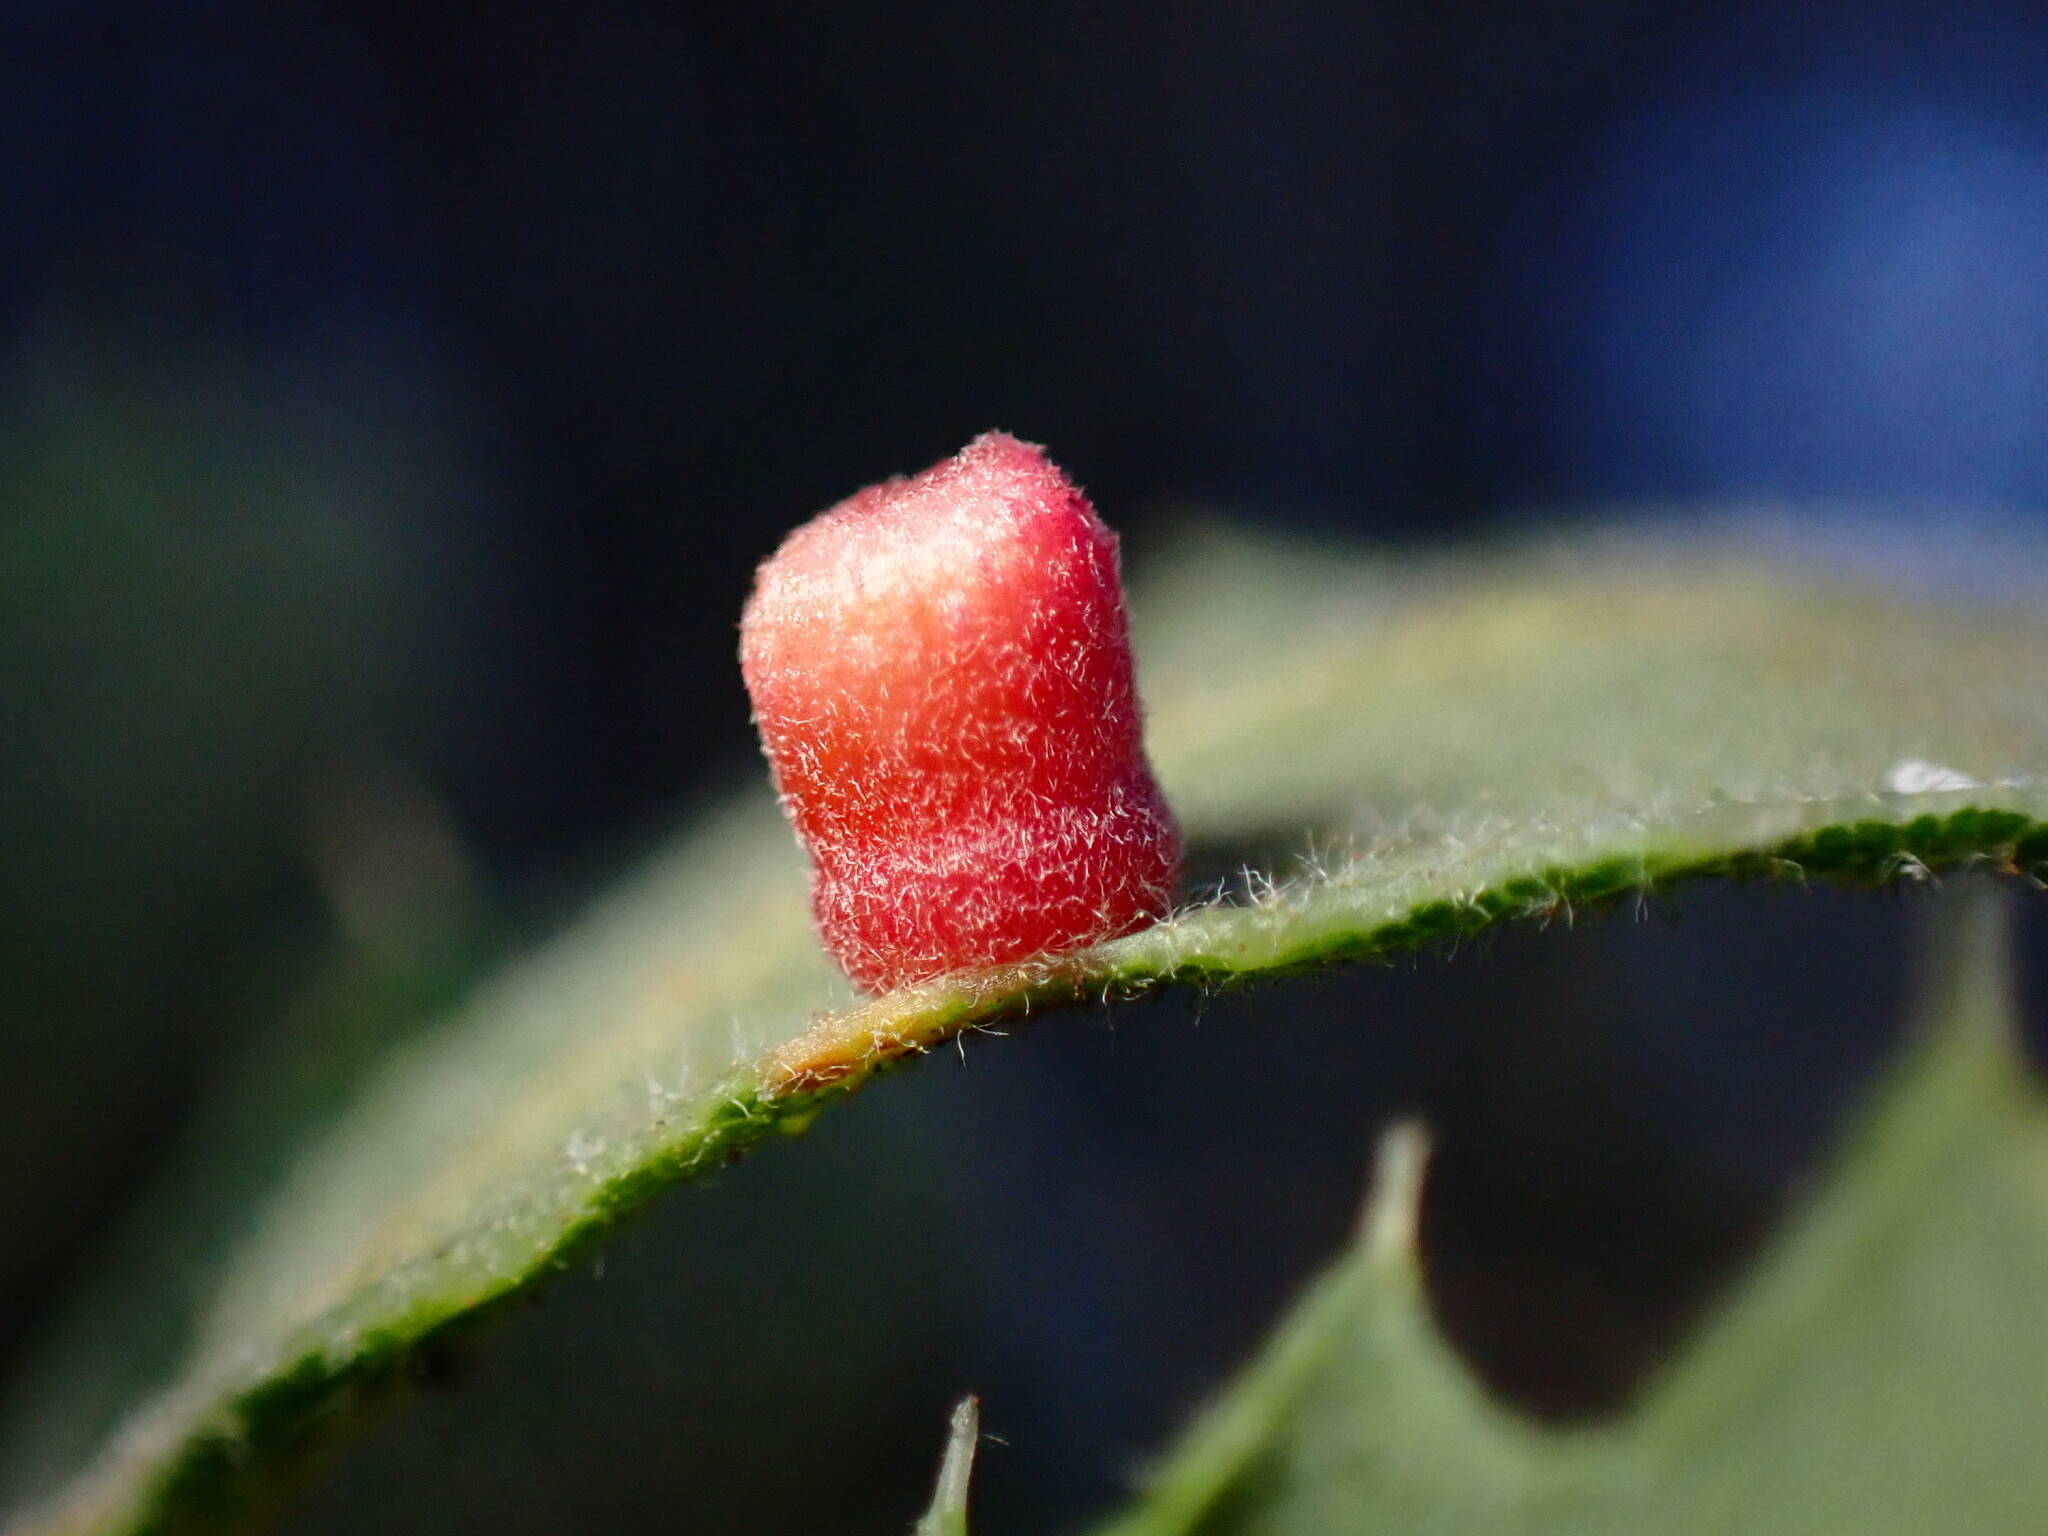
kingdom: Animalia
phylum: Arthropoda
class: Insecta
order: Hymenoptera
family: Cynipidae
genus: Phylloteras
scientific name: Phylloteras
